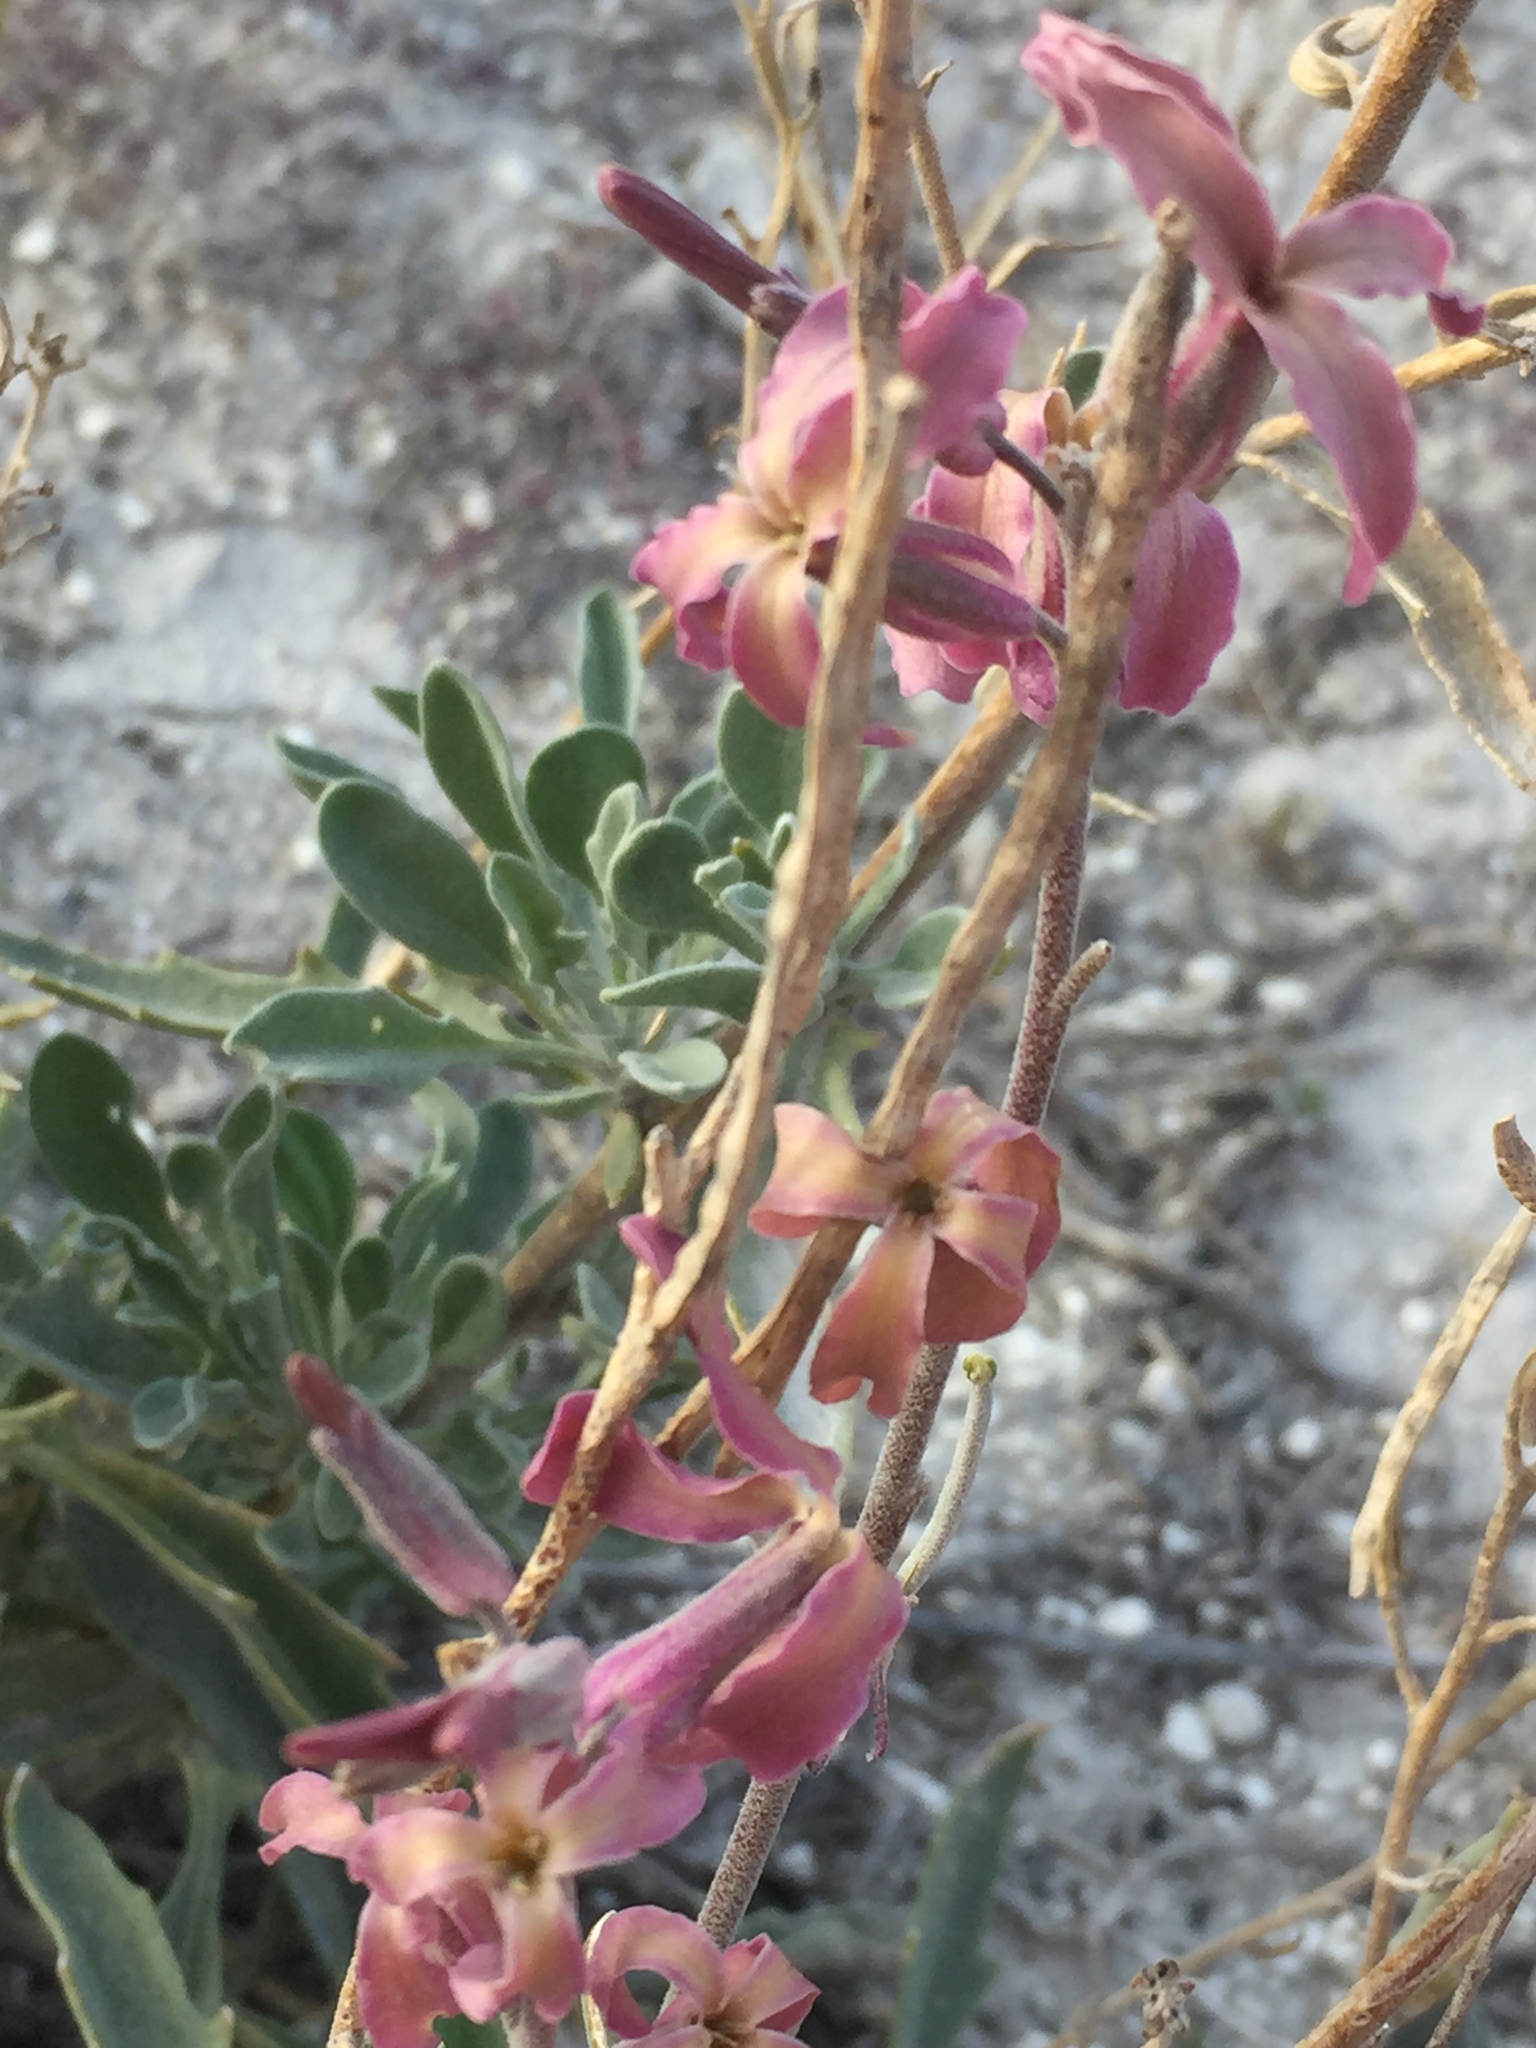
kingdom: Plantae
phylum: Tracheophyta
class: Magnoliopsida
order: Brassicales
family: Brassicaceae
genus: Matthiola
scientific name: Matthiola fragrans
